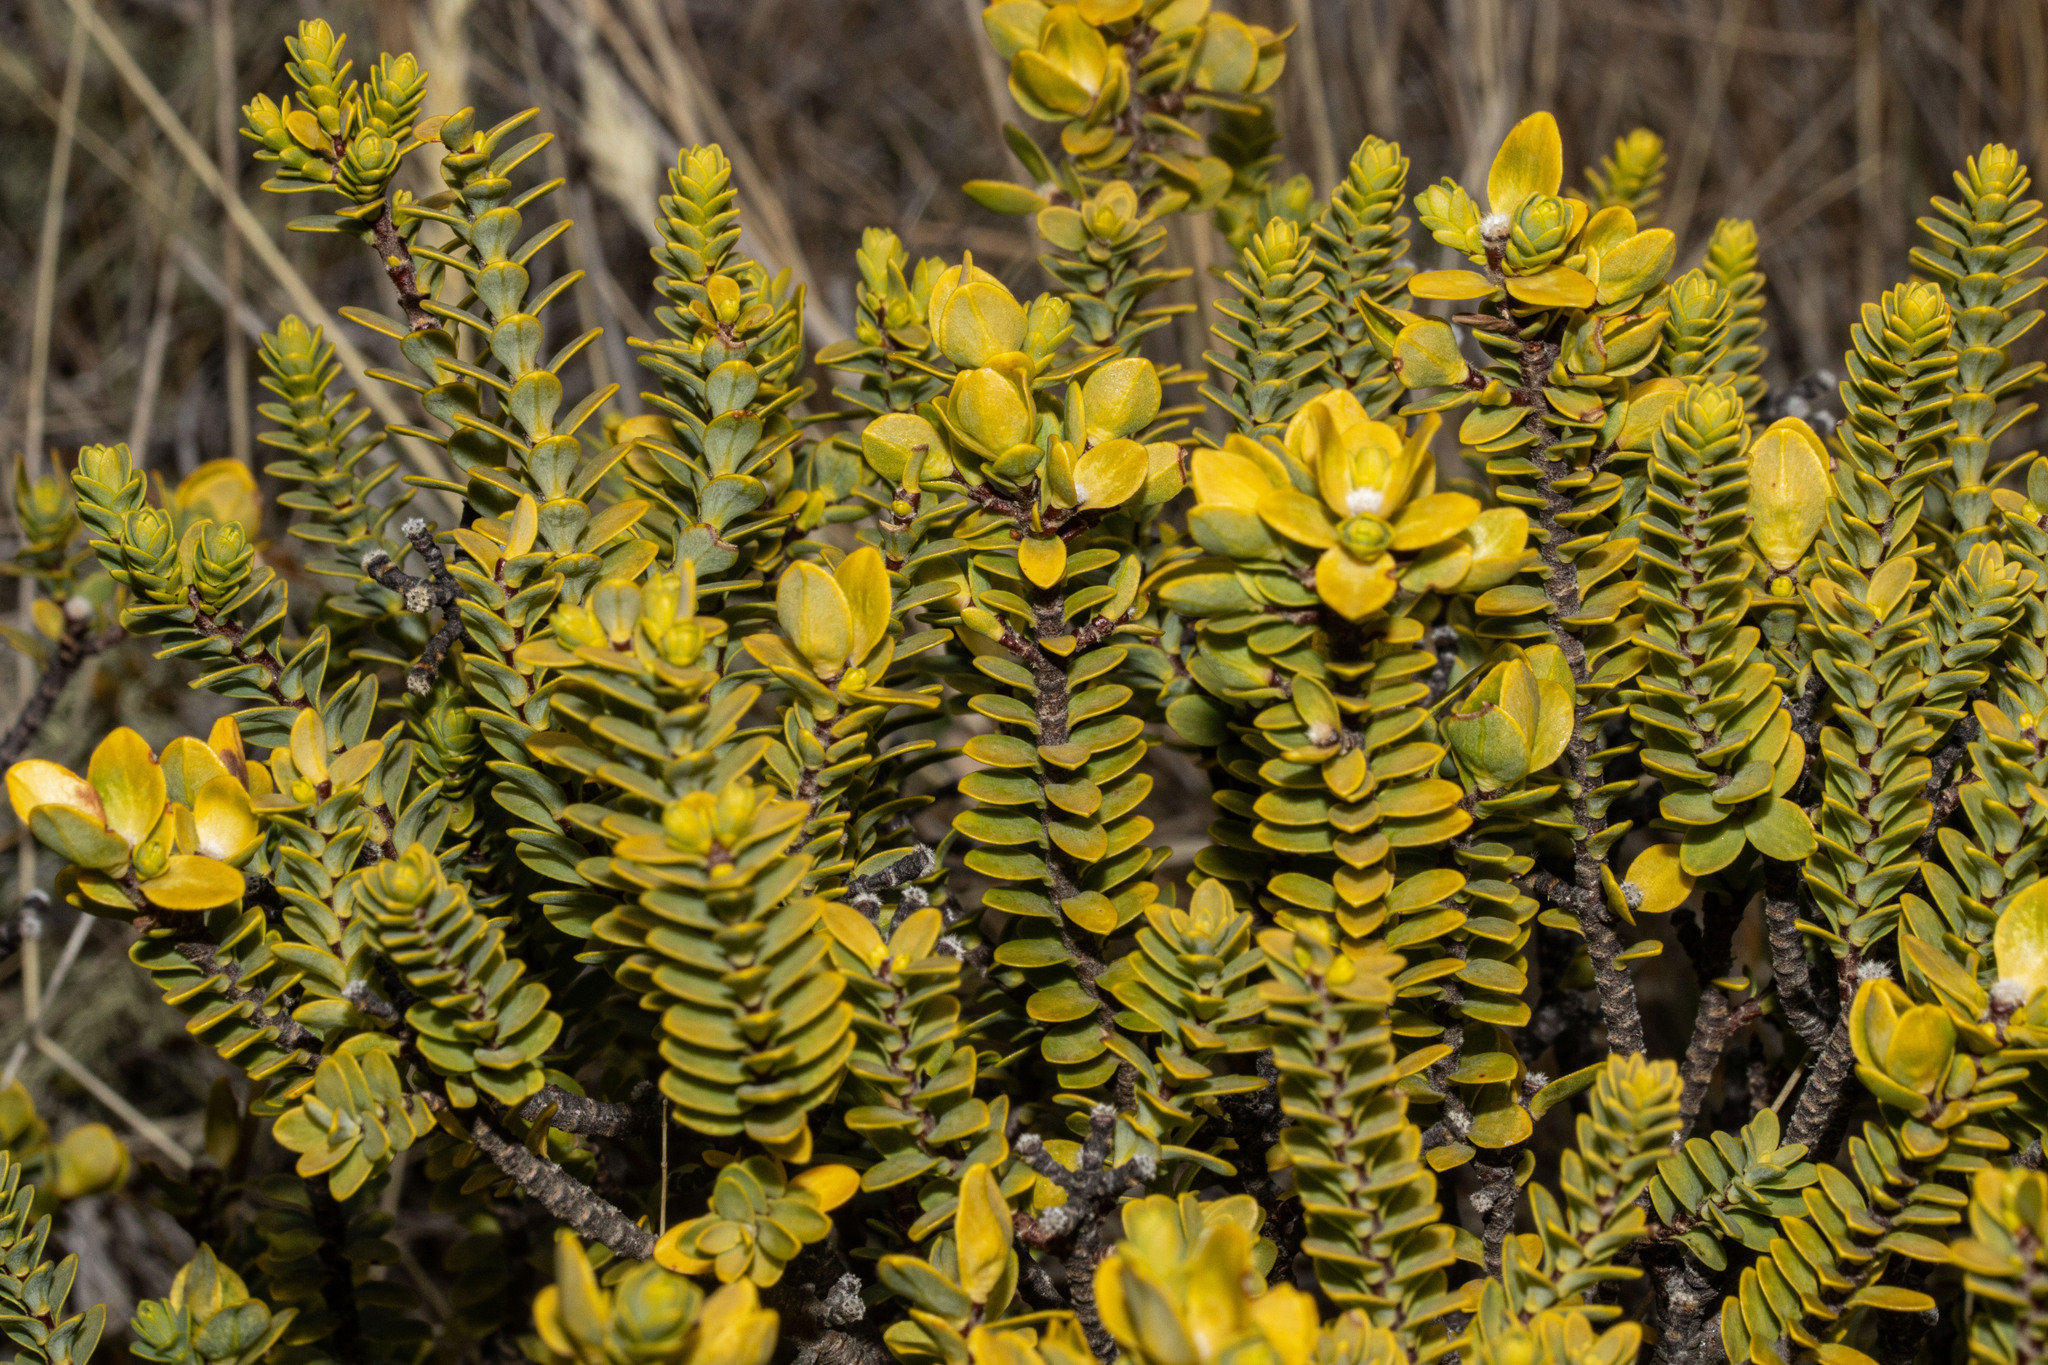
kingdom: Plantae
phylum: Tracheophyta
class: Magnoliopsida
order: Malvales
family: Thymelaeaceae
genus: Pimelea
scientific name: Pimelea traversii
